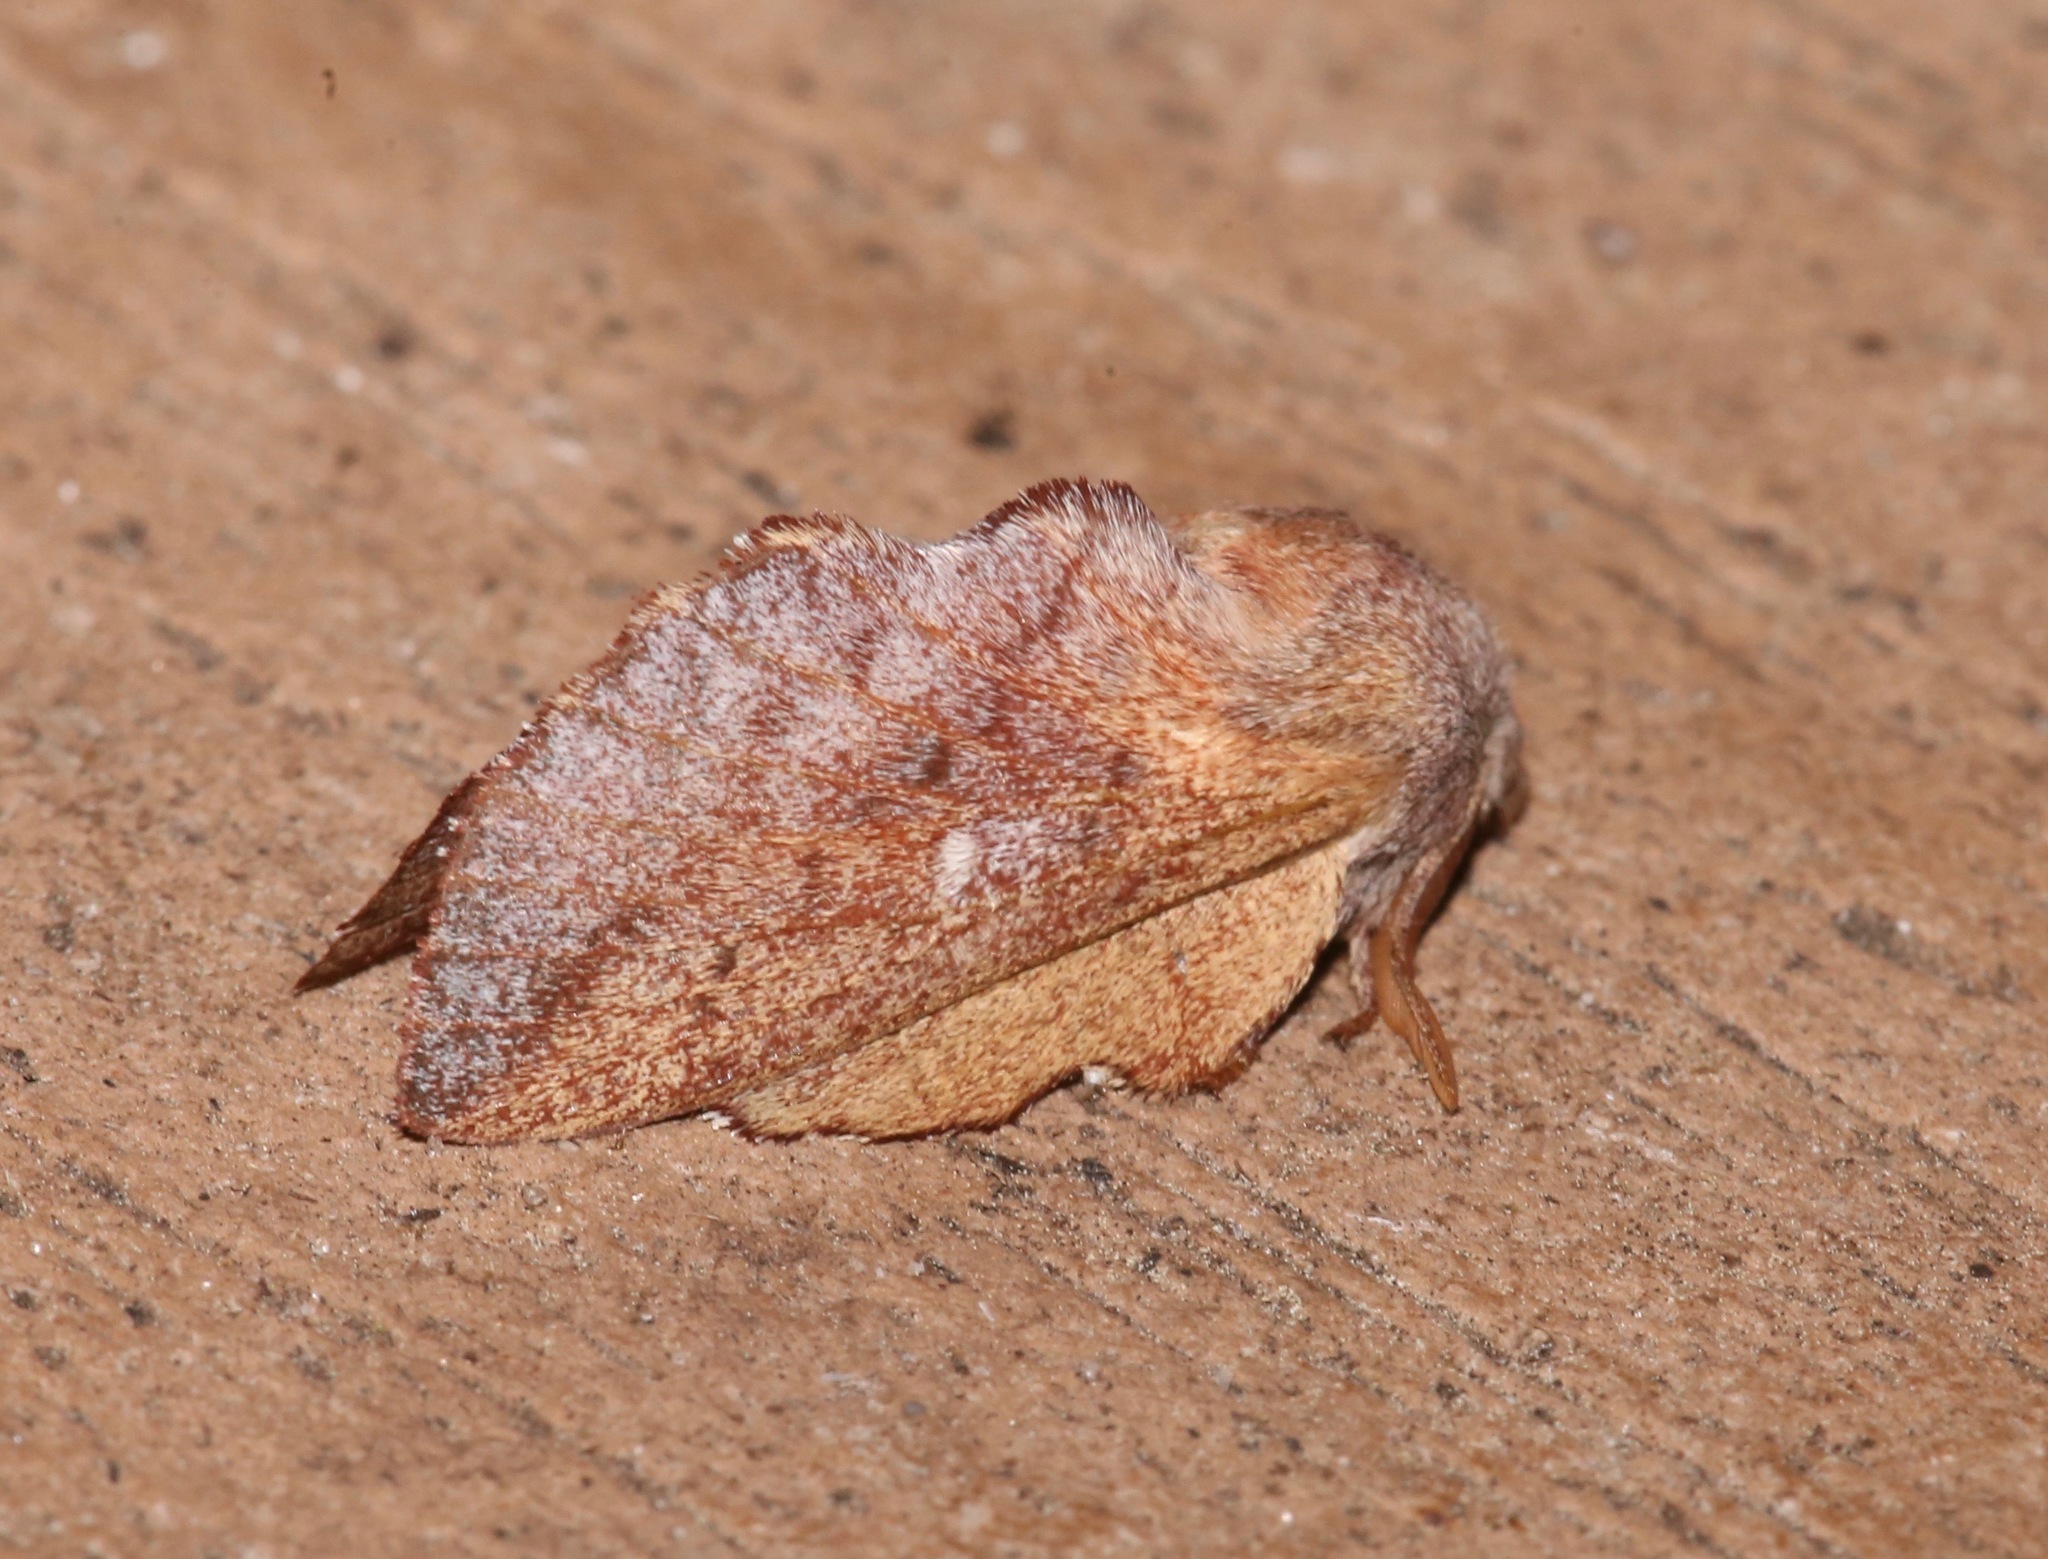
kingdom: Animalia
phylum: Arthropoda
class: Insecta
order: Lepidoptera
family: Lasiocampidae
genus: Phyllodesma
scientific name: Phyllodesma americana
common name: American lappet moth
